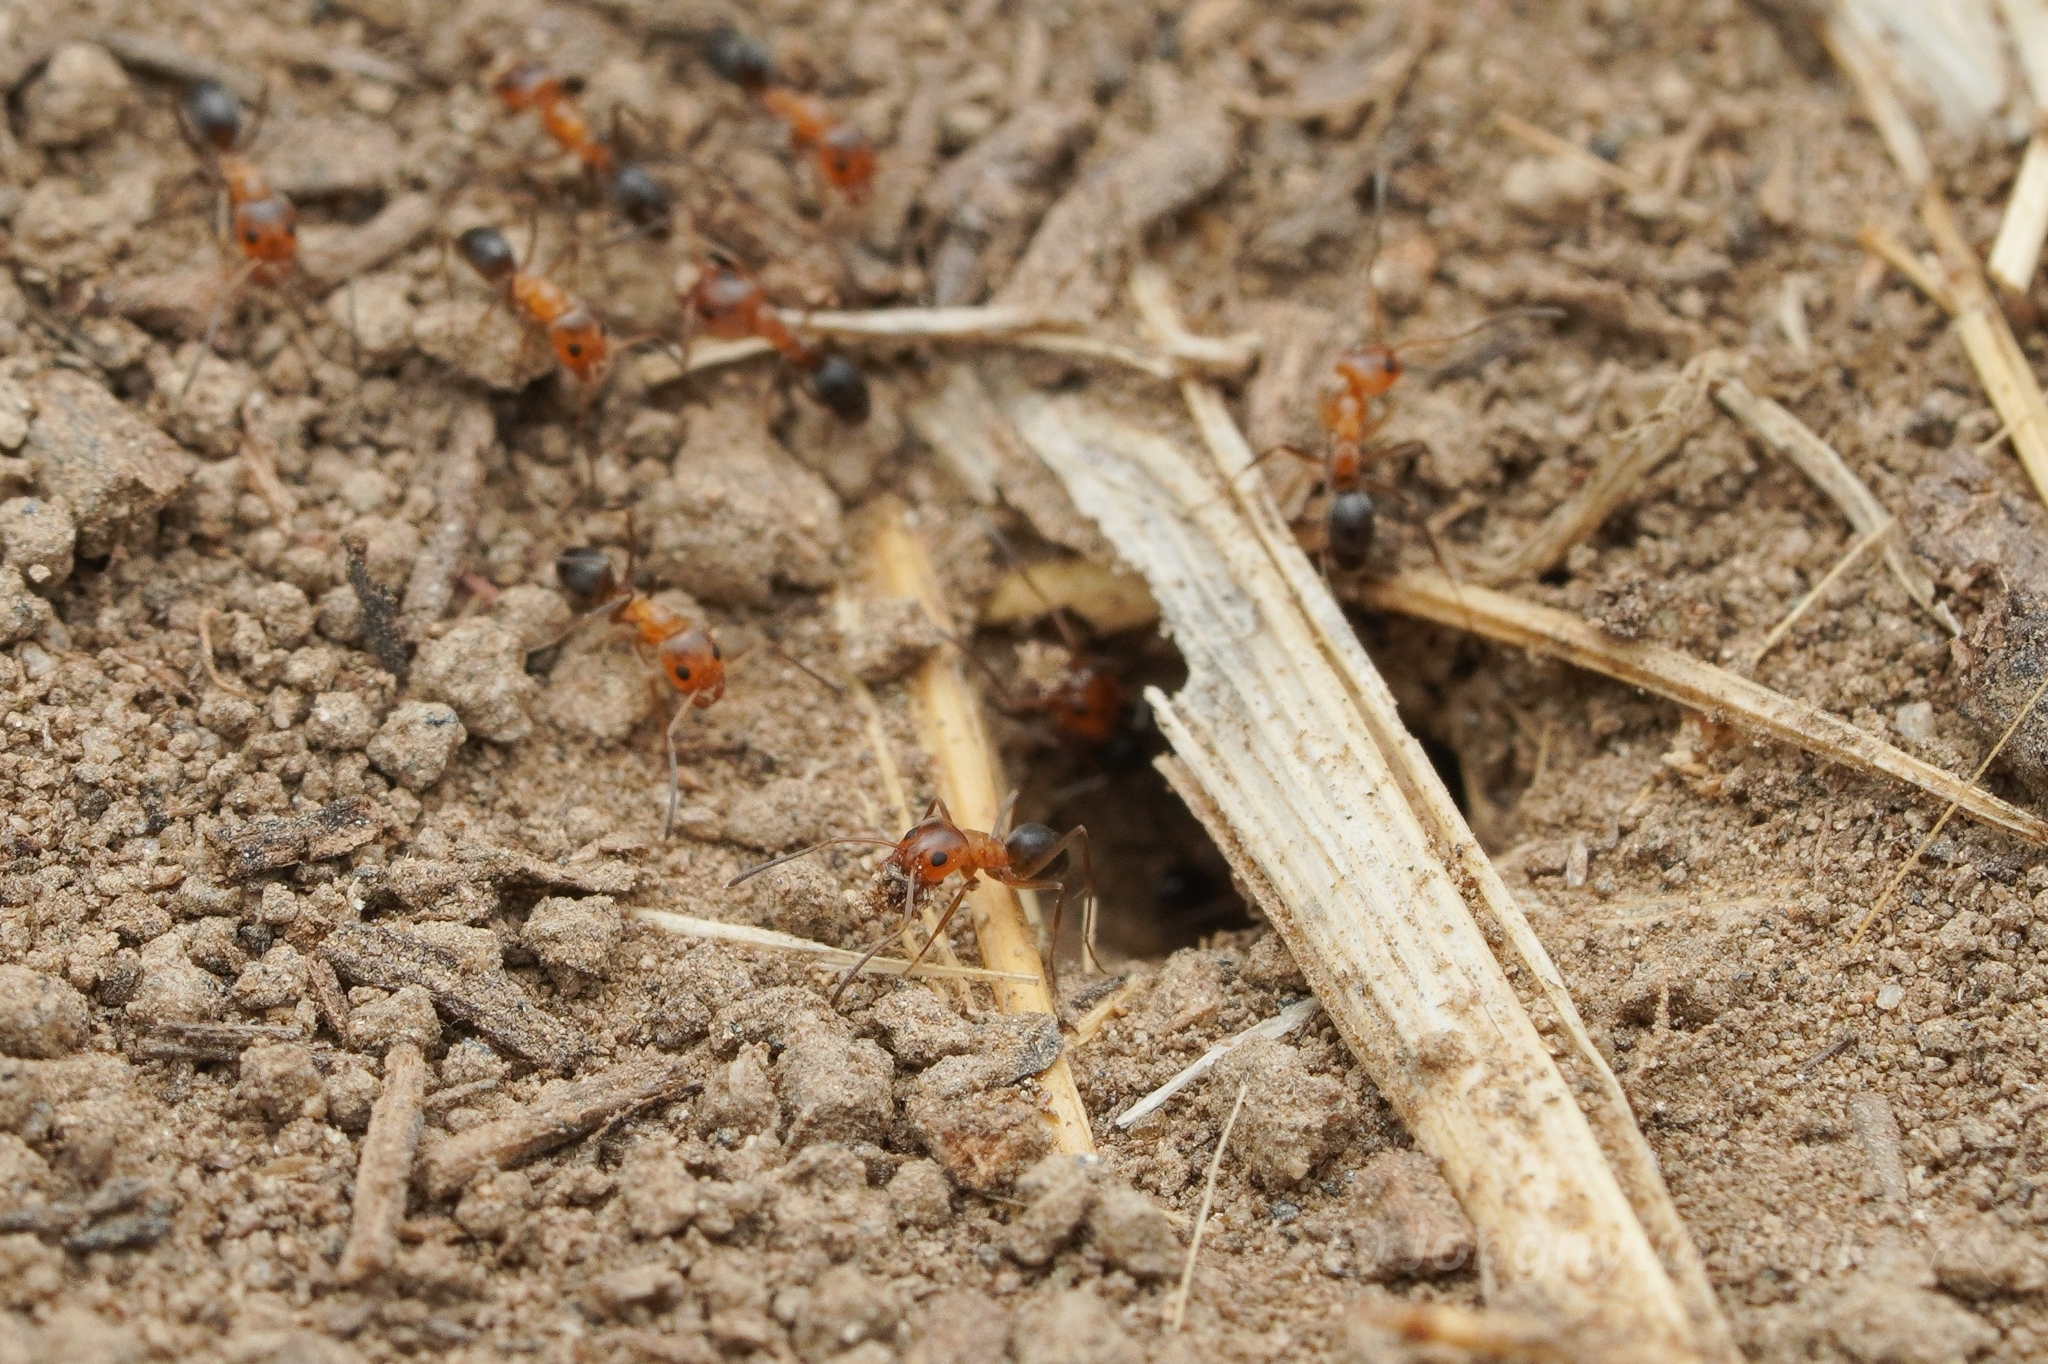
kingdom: Animalia
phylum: Arthropoda
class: Insecta
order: Hymenoptera
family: Formicidae
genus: Dorymyrmex
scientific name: Dorymyrmex bicolor
